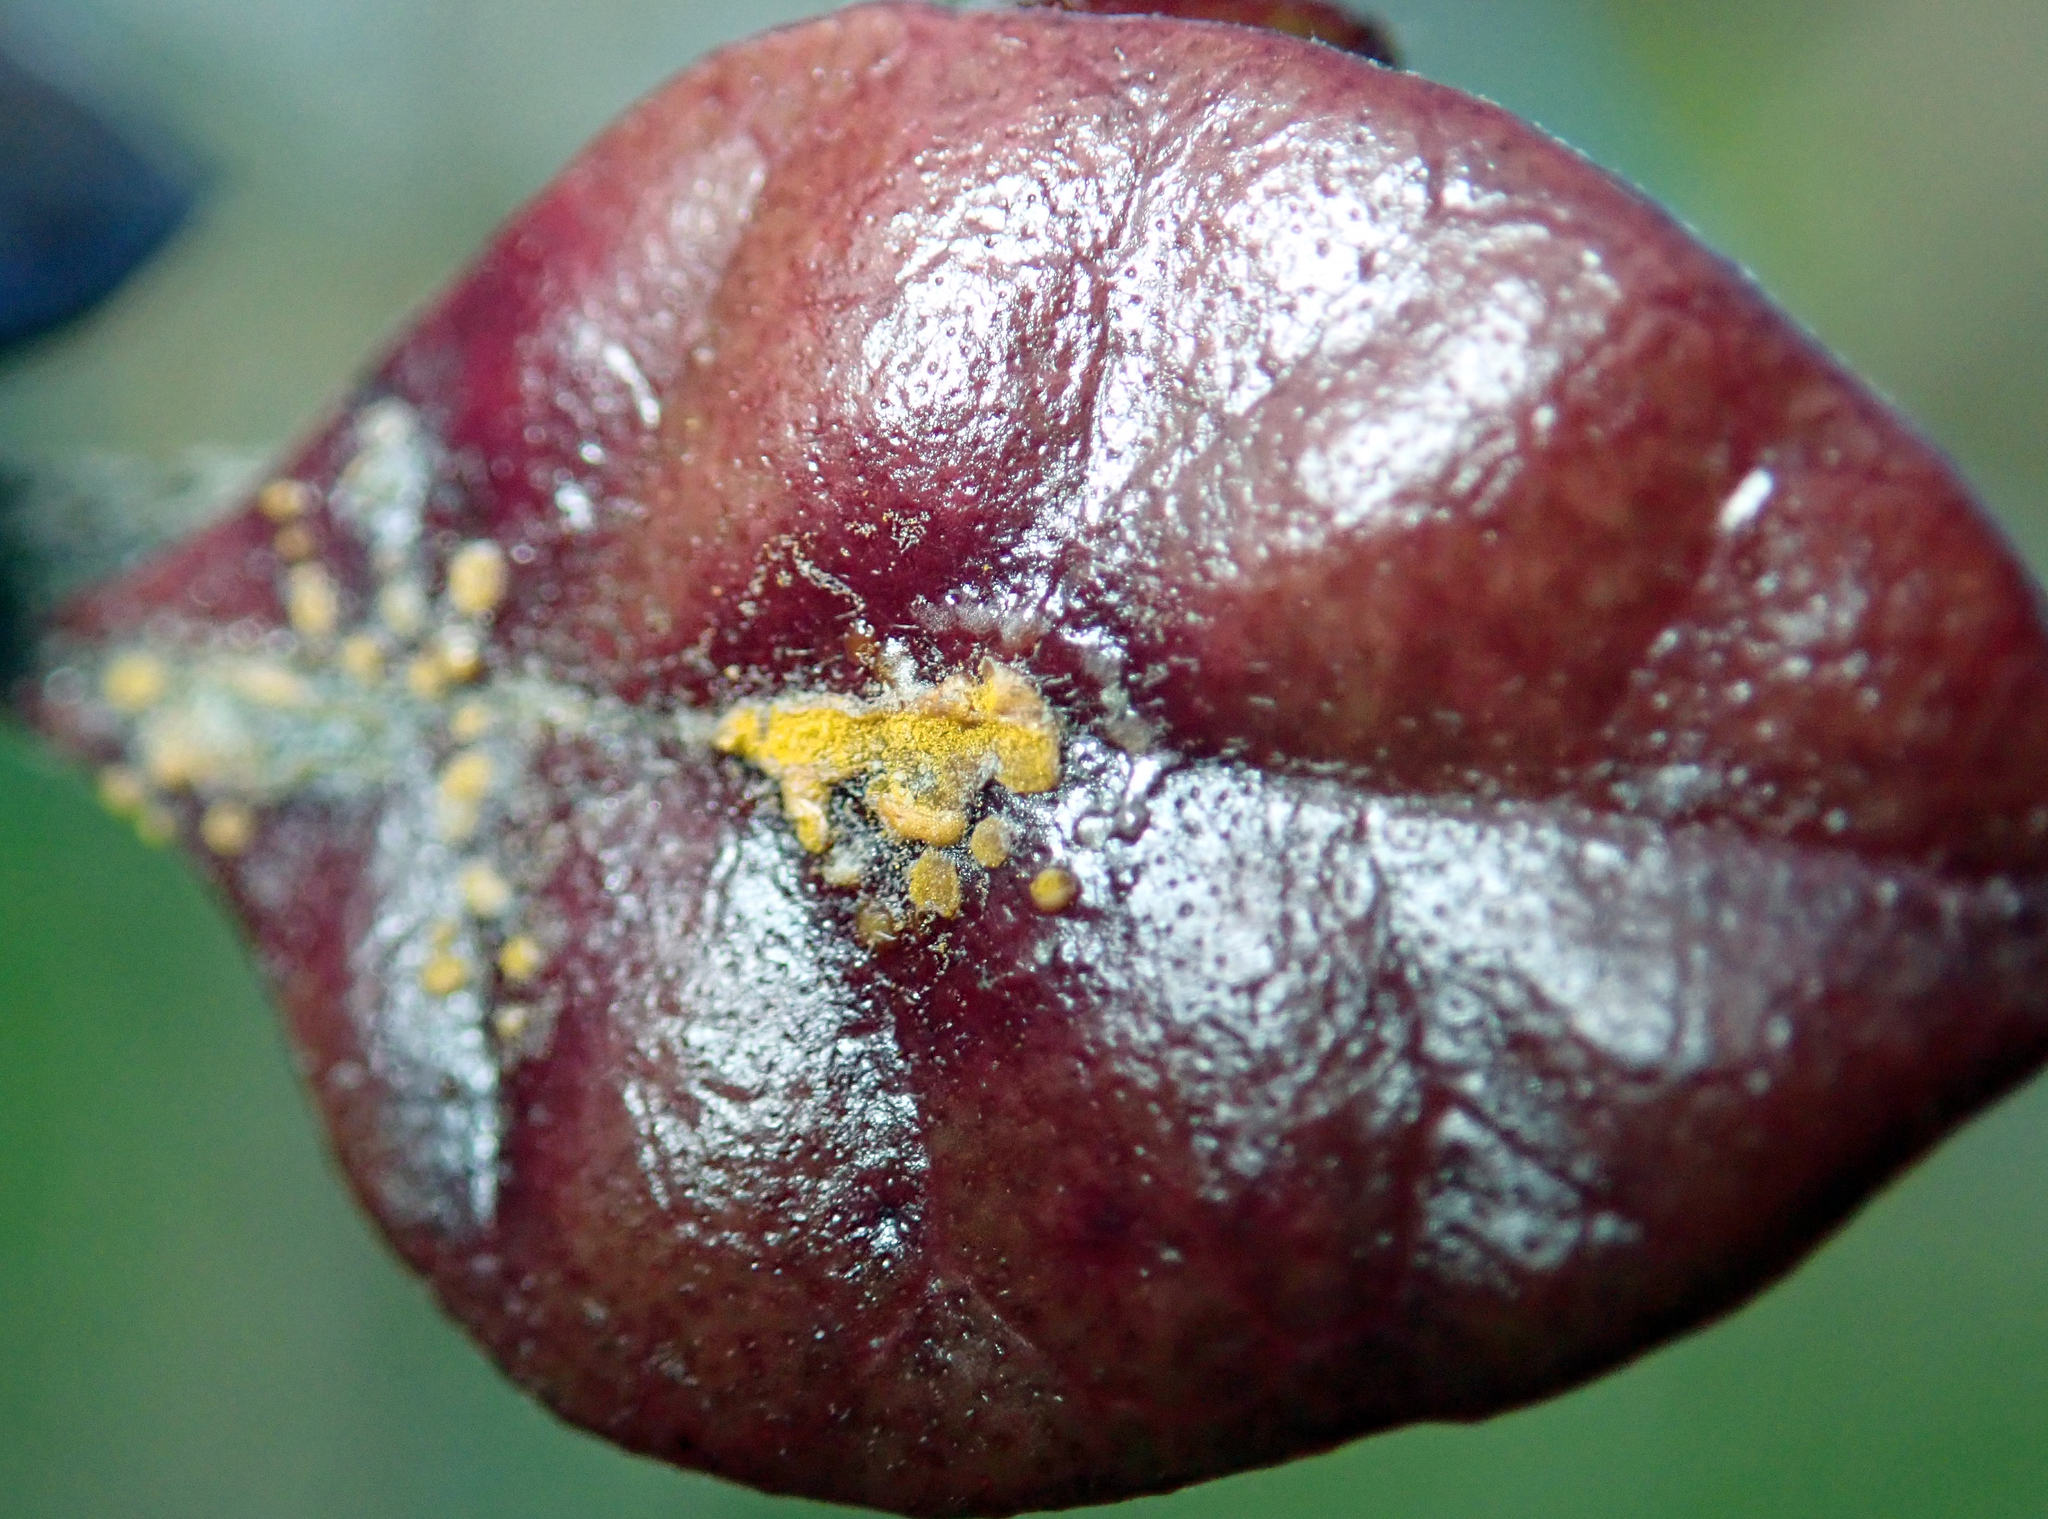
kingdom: Fungi
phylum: Basidiomycota
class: Pucciniomycetes
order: Pucciniales
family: Sphaerophragmiaceae
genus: Austropuccinia
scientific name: Austropuccinia psidii
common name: Myrtle rust
